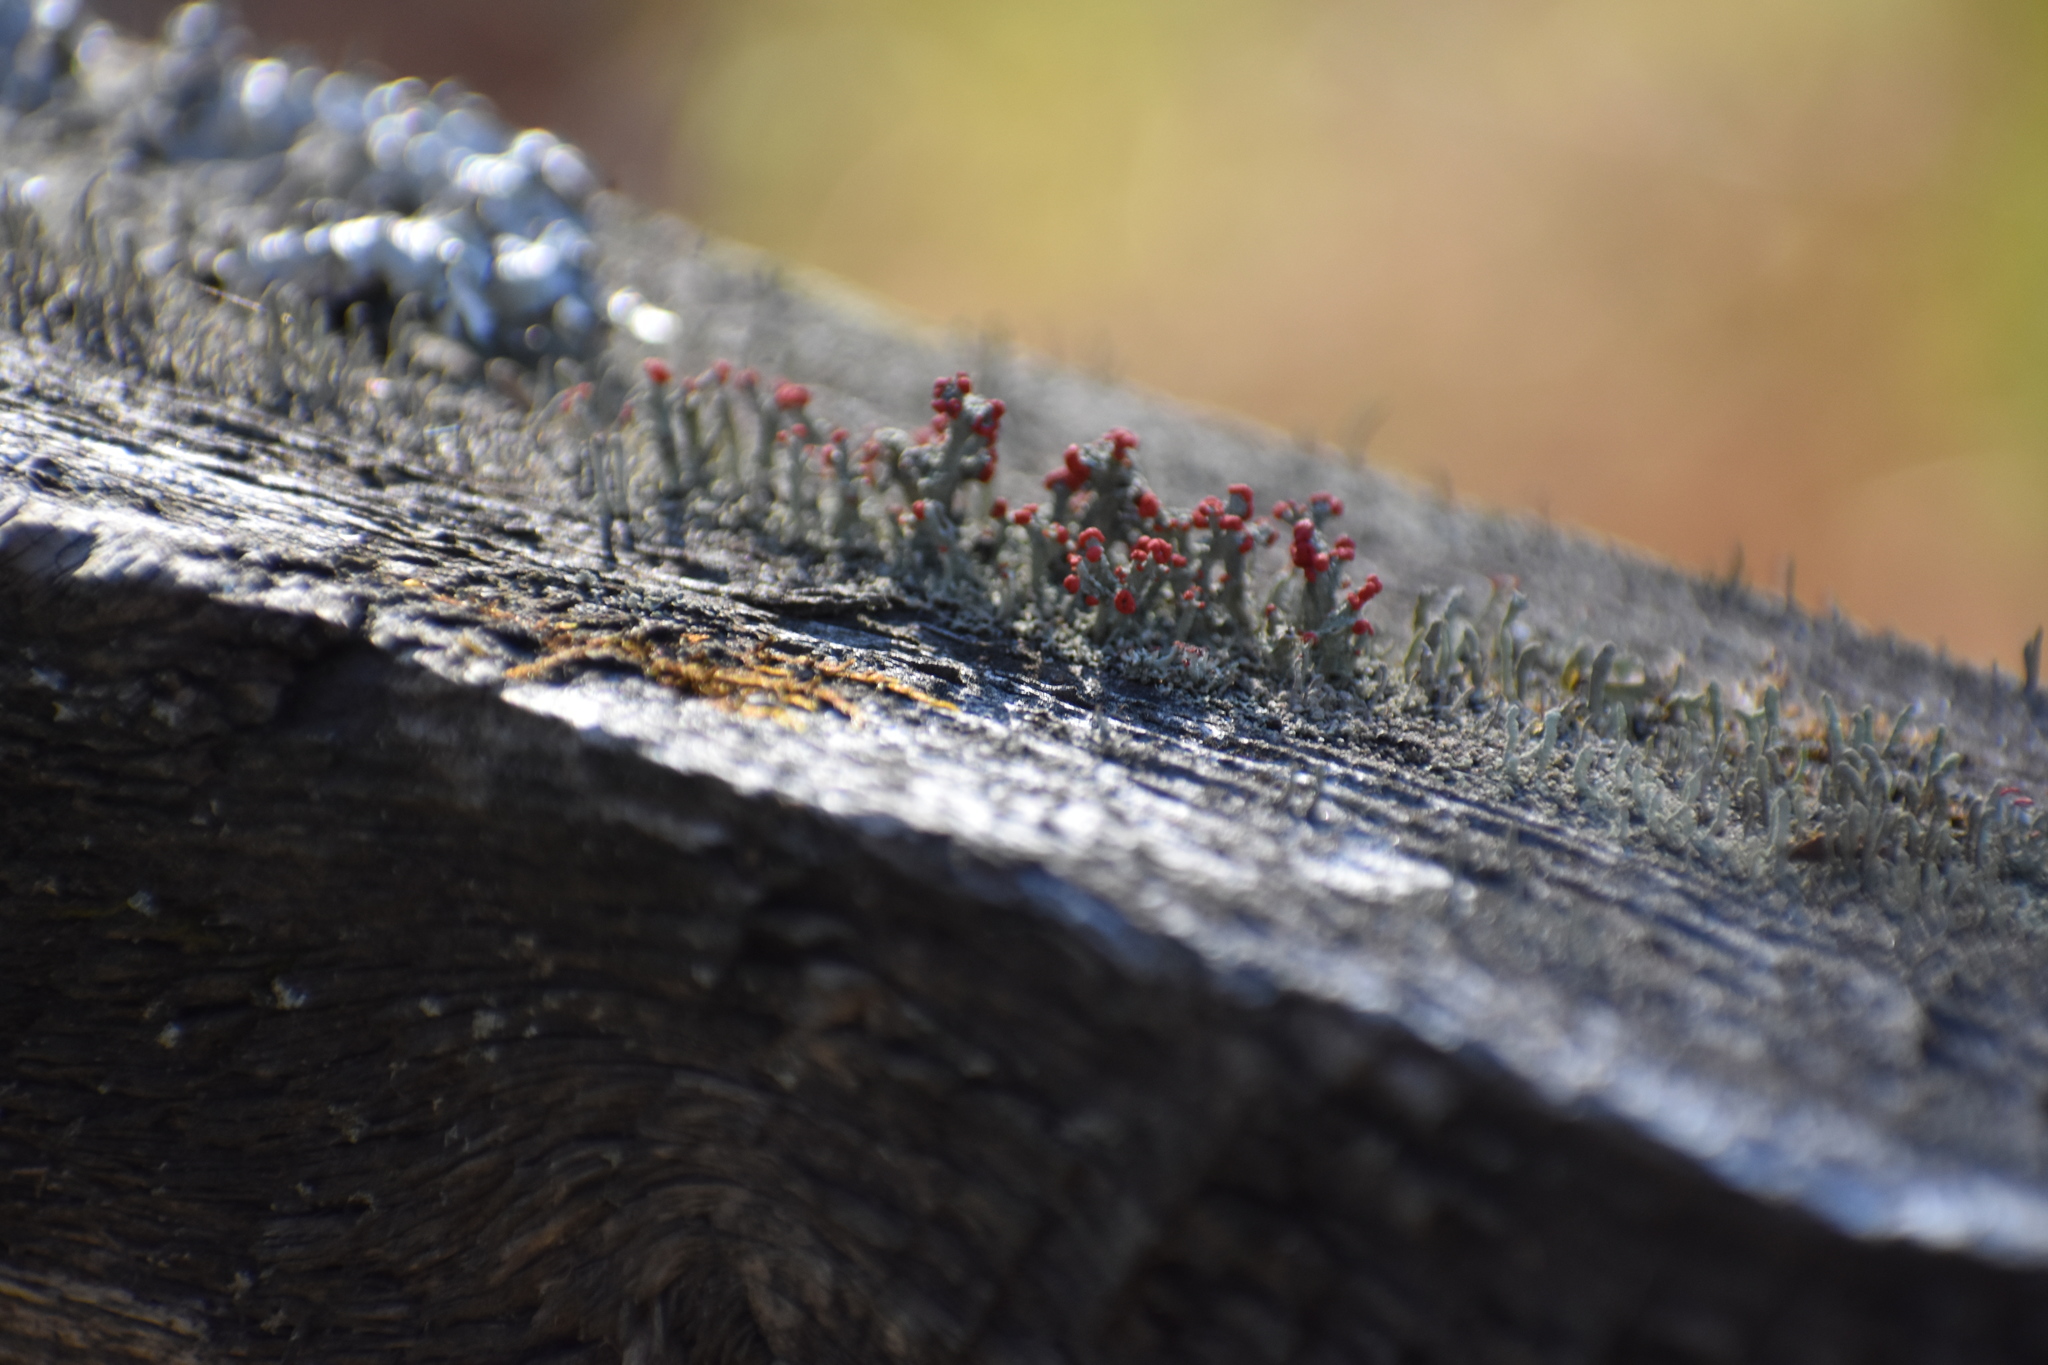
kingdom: Fungi
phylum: Ascomycota
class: Lecanoromycetes
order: Lecanorales
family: Cladoniaceae
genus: Cladonia
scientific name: Cladonia cristatella
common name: British soldier lichen
